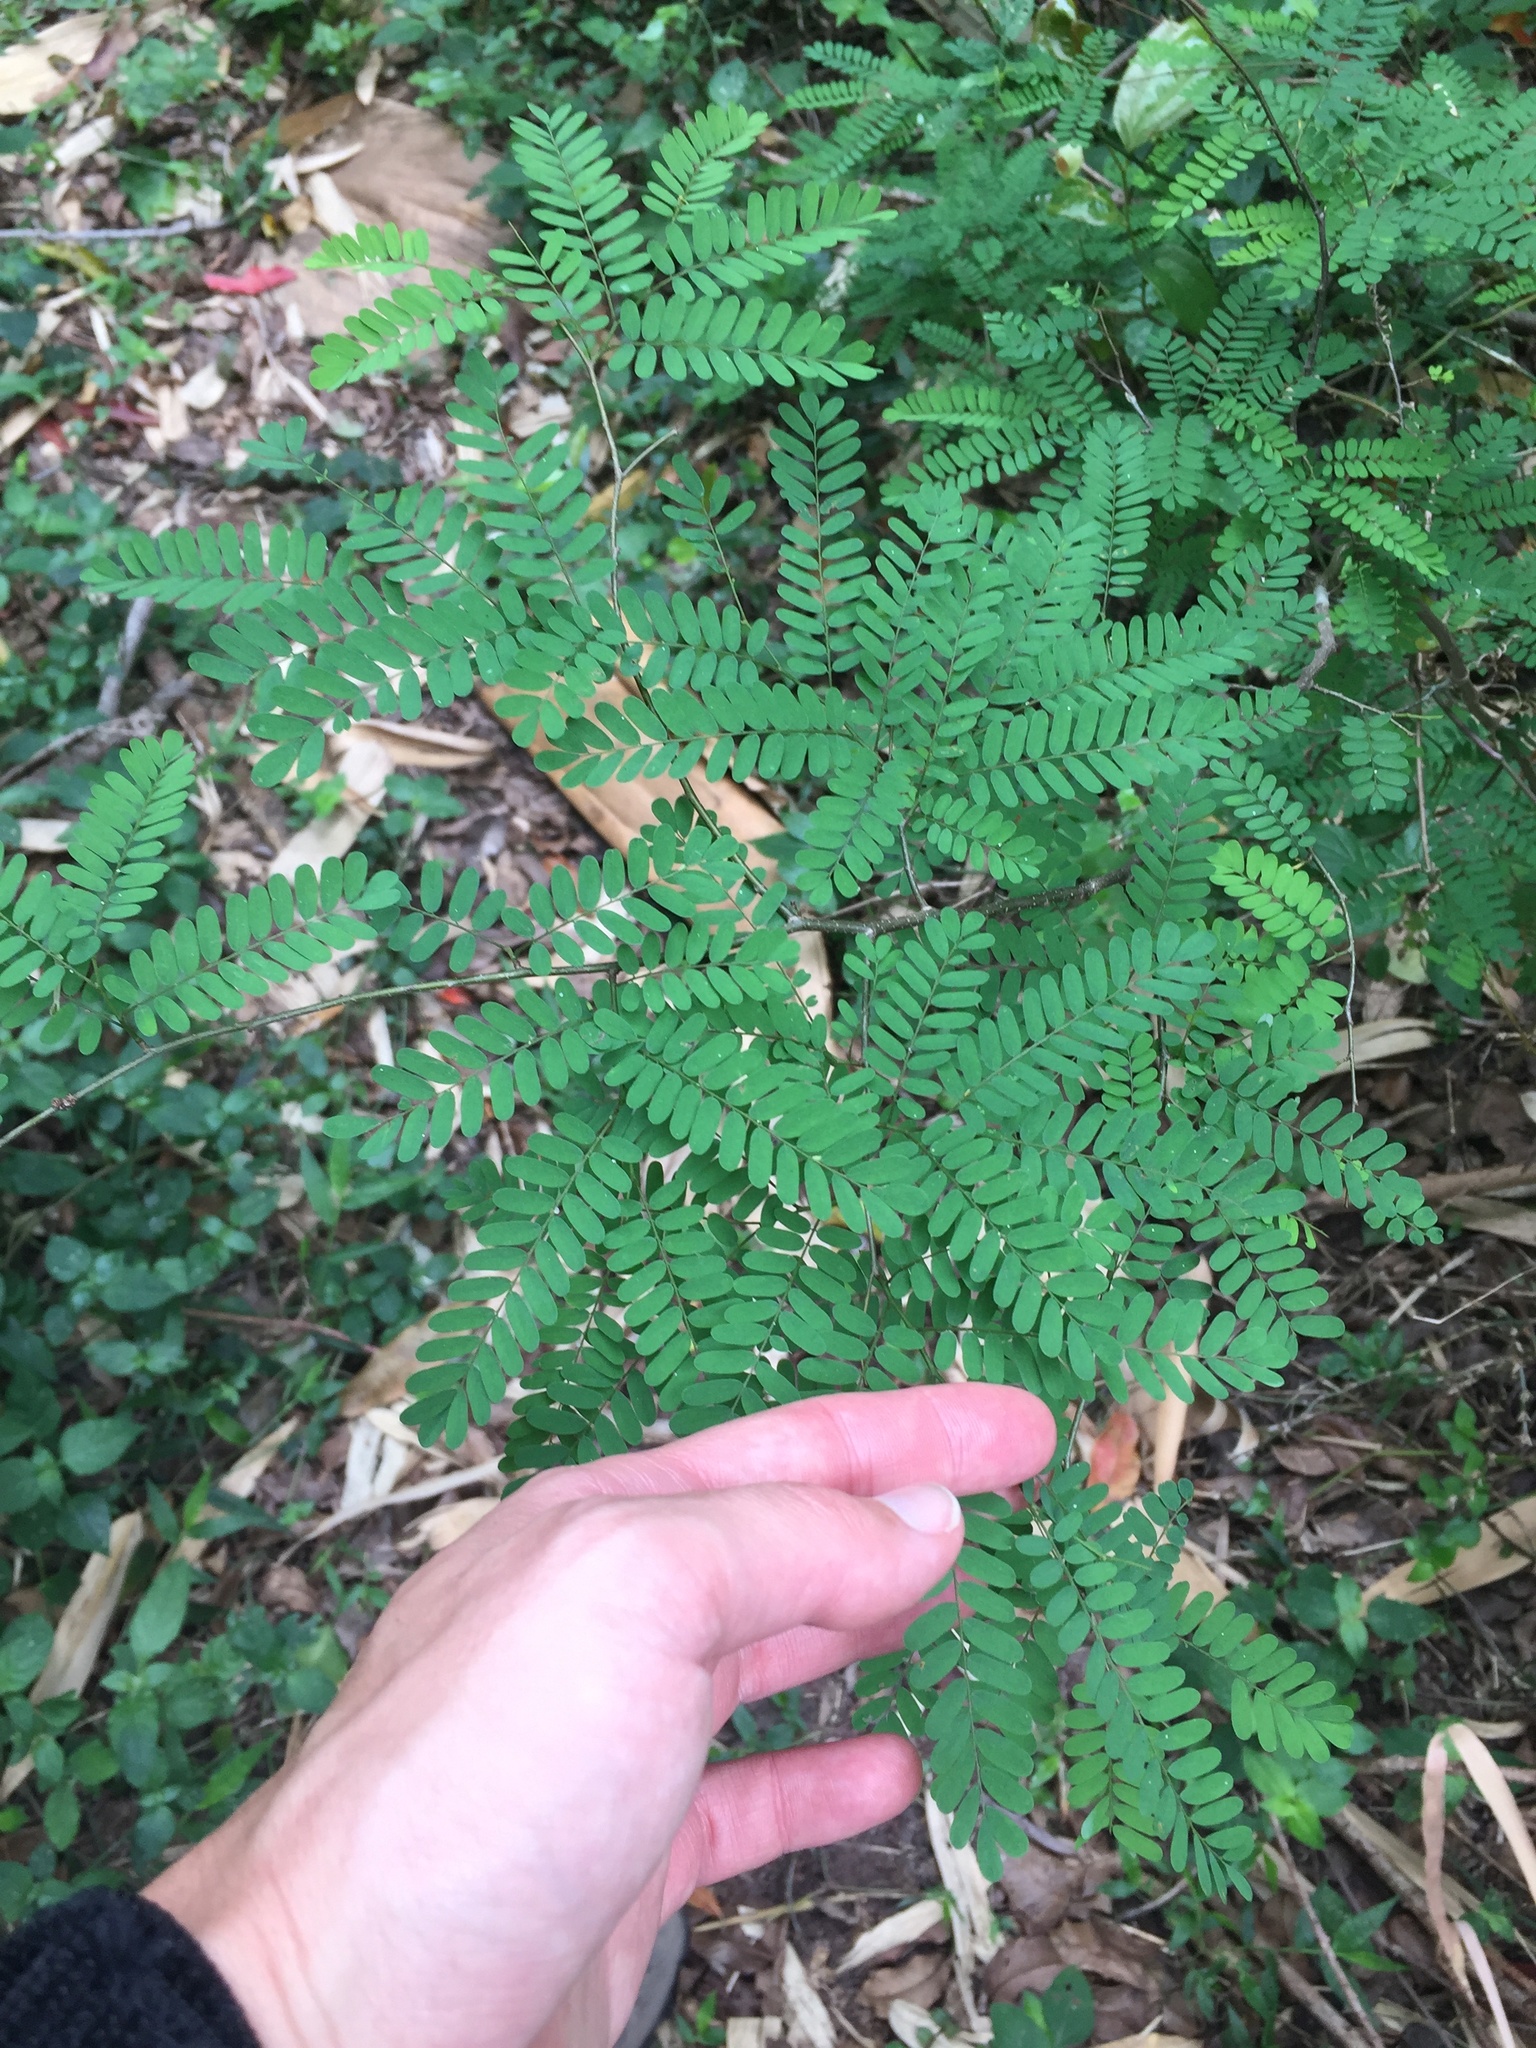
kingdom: Plantae
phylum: Tracheophyta
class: Magnoliopsida
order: Fabales
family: Fabaceae
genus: Dalbergia
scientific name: Dalbergia armata
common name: Hluhluwe climber
